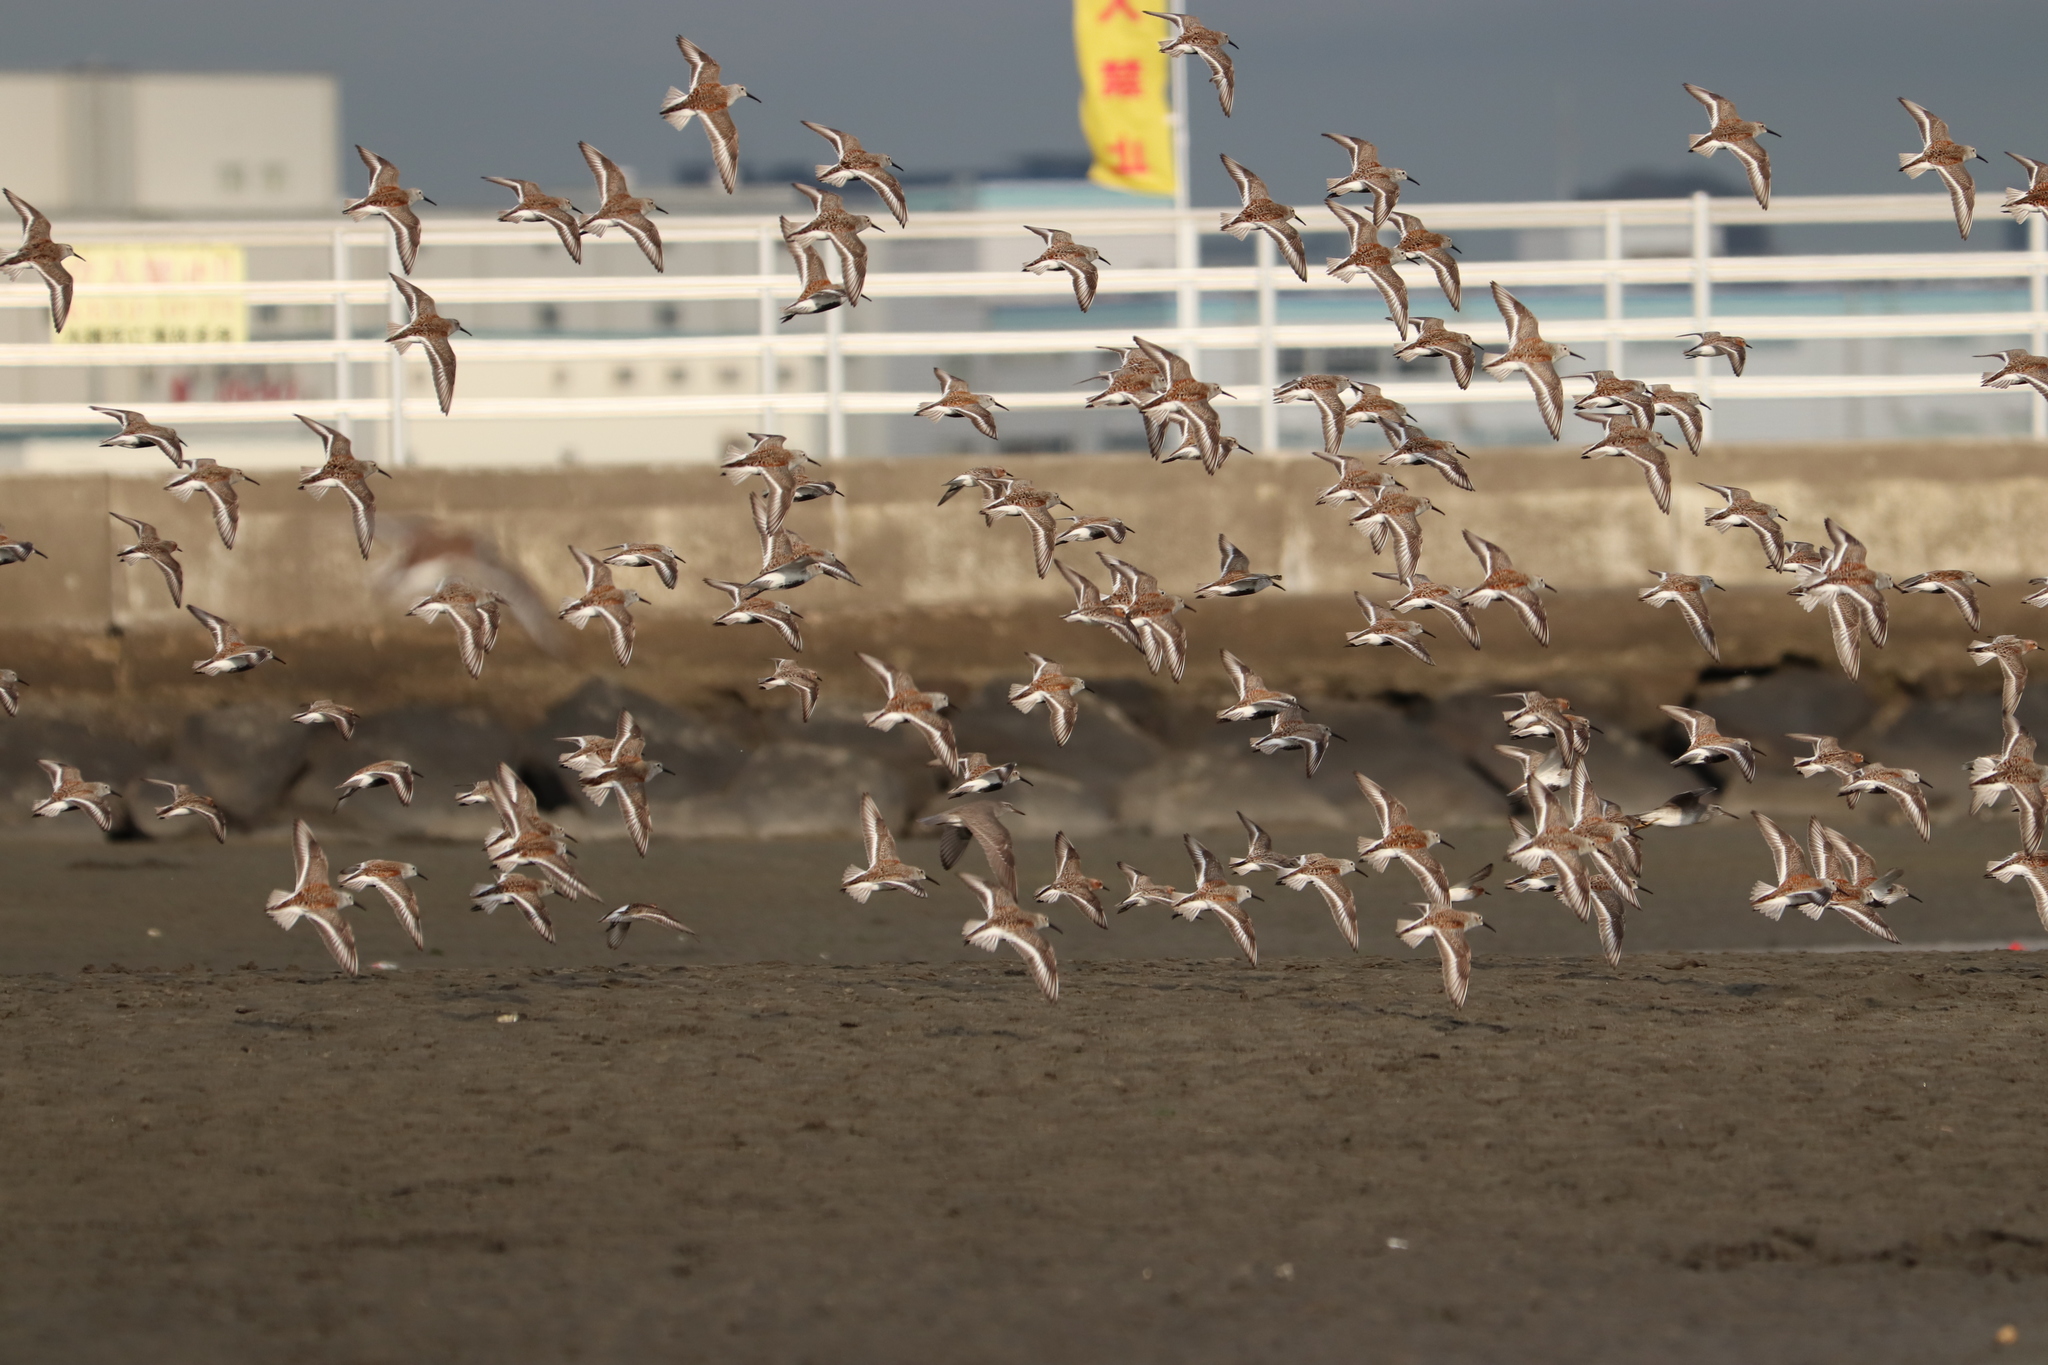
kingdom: Animalia
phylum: Chordata
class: Aves
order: Charadriiformes
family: Scolopacidae
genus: Calidris
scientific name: Calidris alpina
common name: Dunlin
